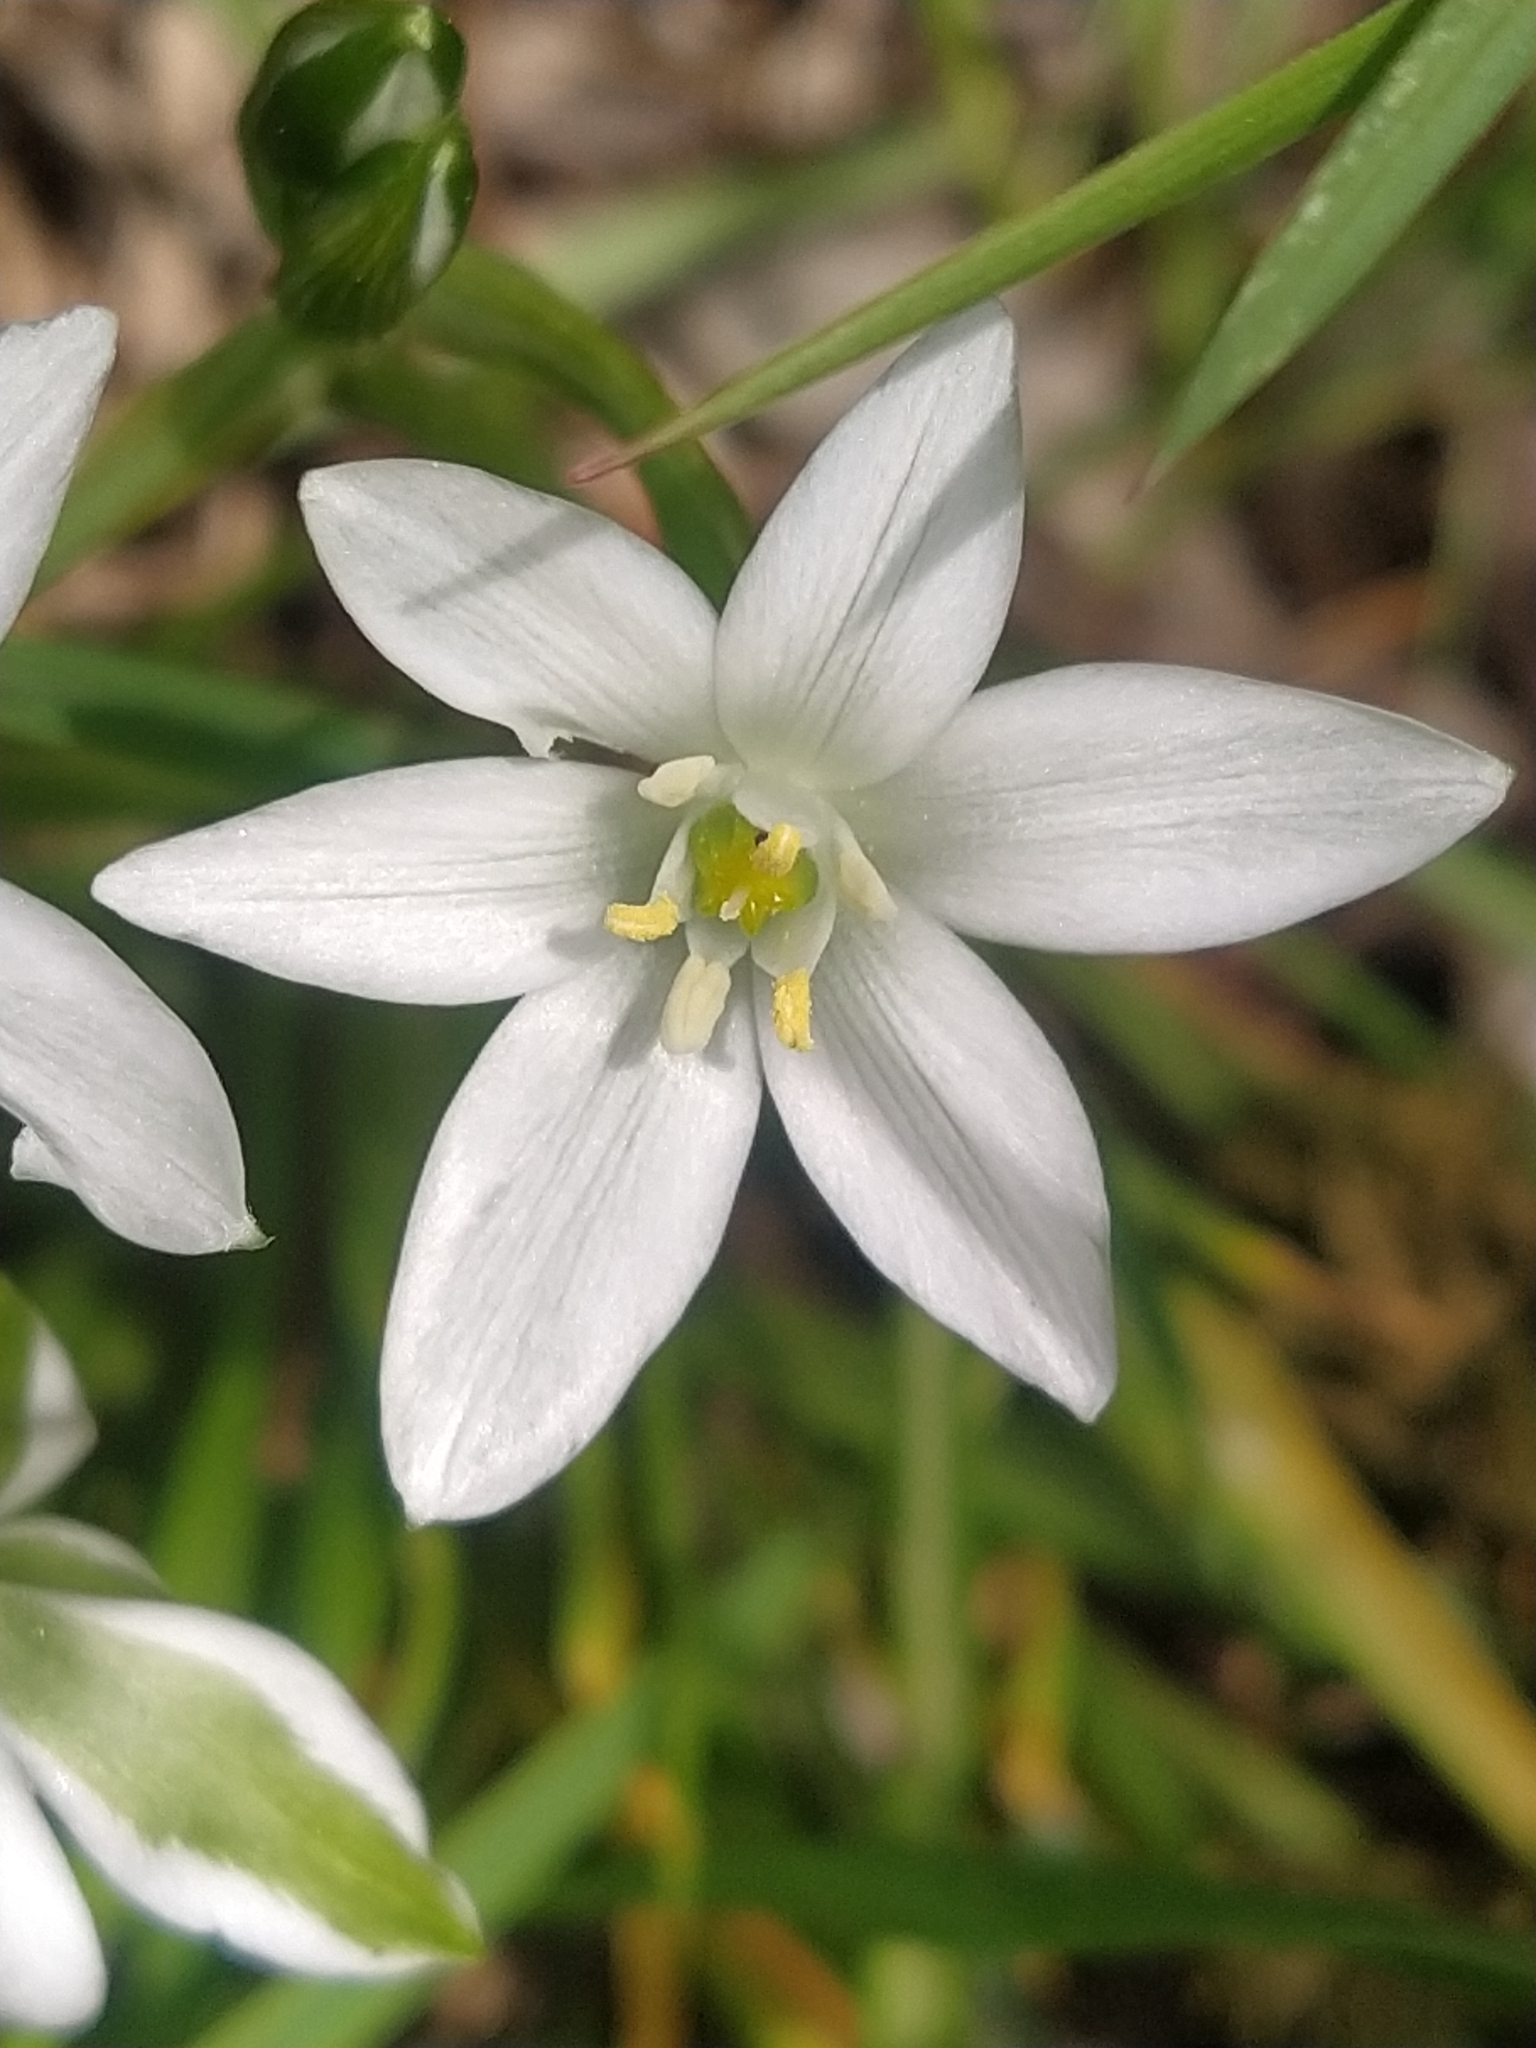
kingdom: Plantae
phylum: Tracheophyta
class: Liliopsida
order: Asparagales
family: Asparagaceae
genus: Ornithogalum
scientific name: Ornithogalum divergens
